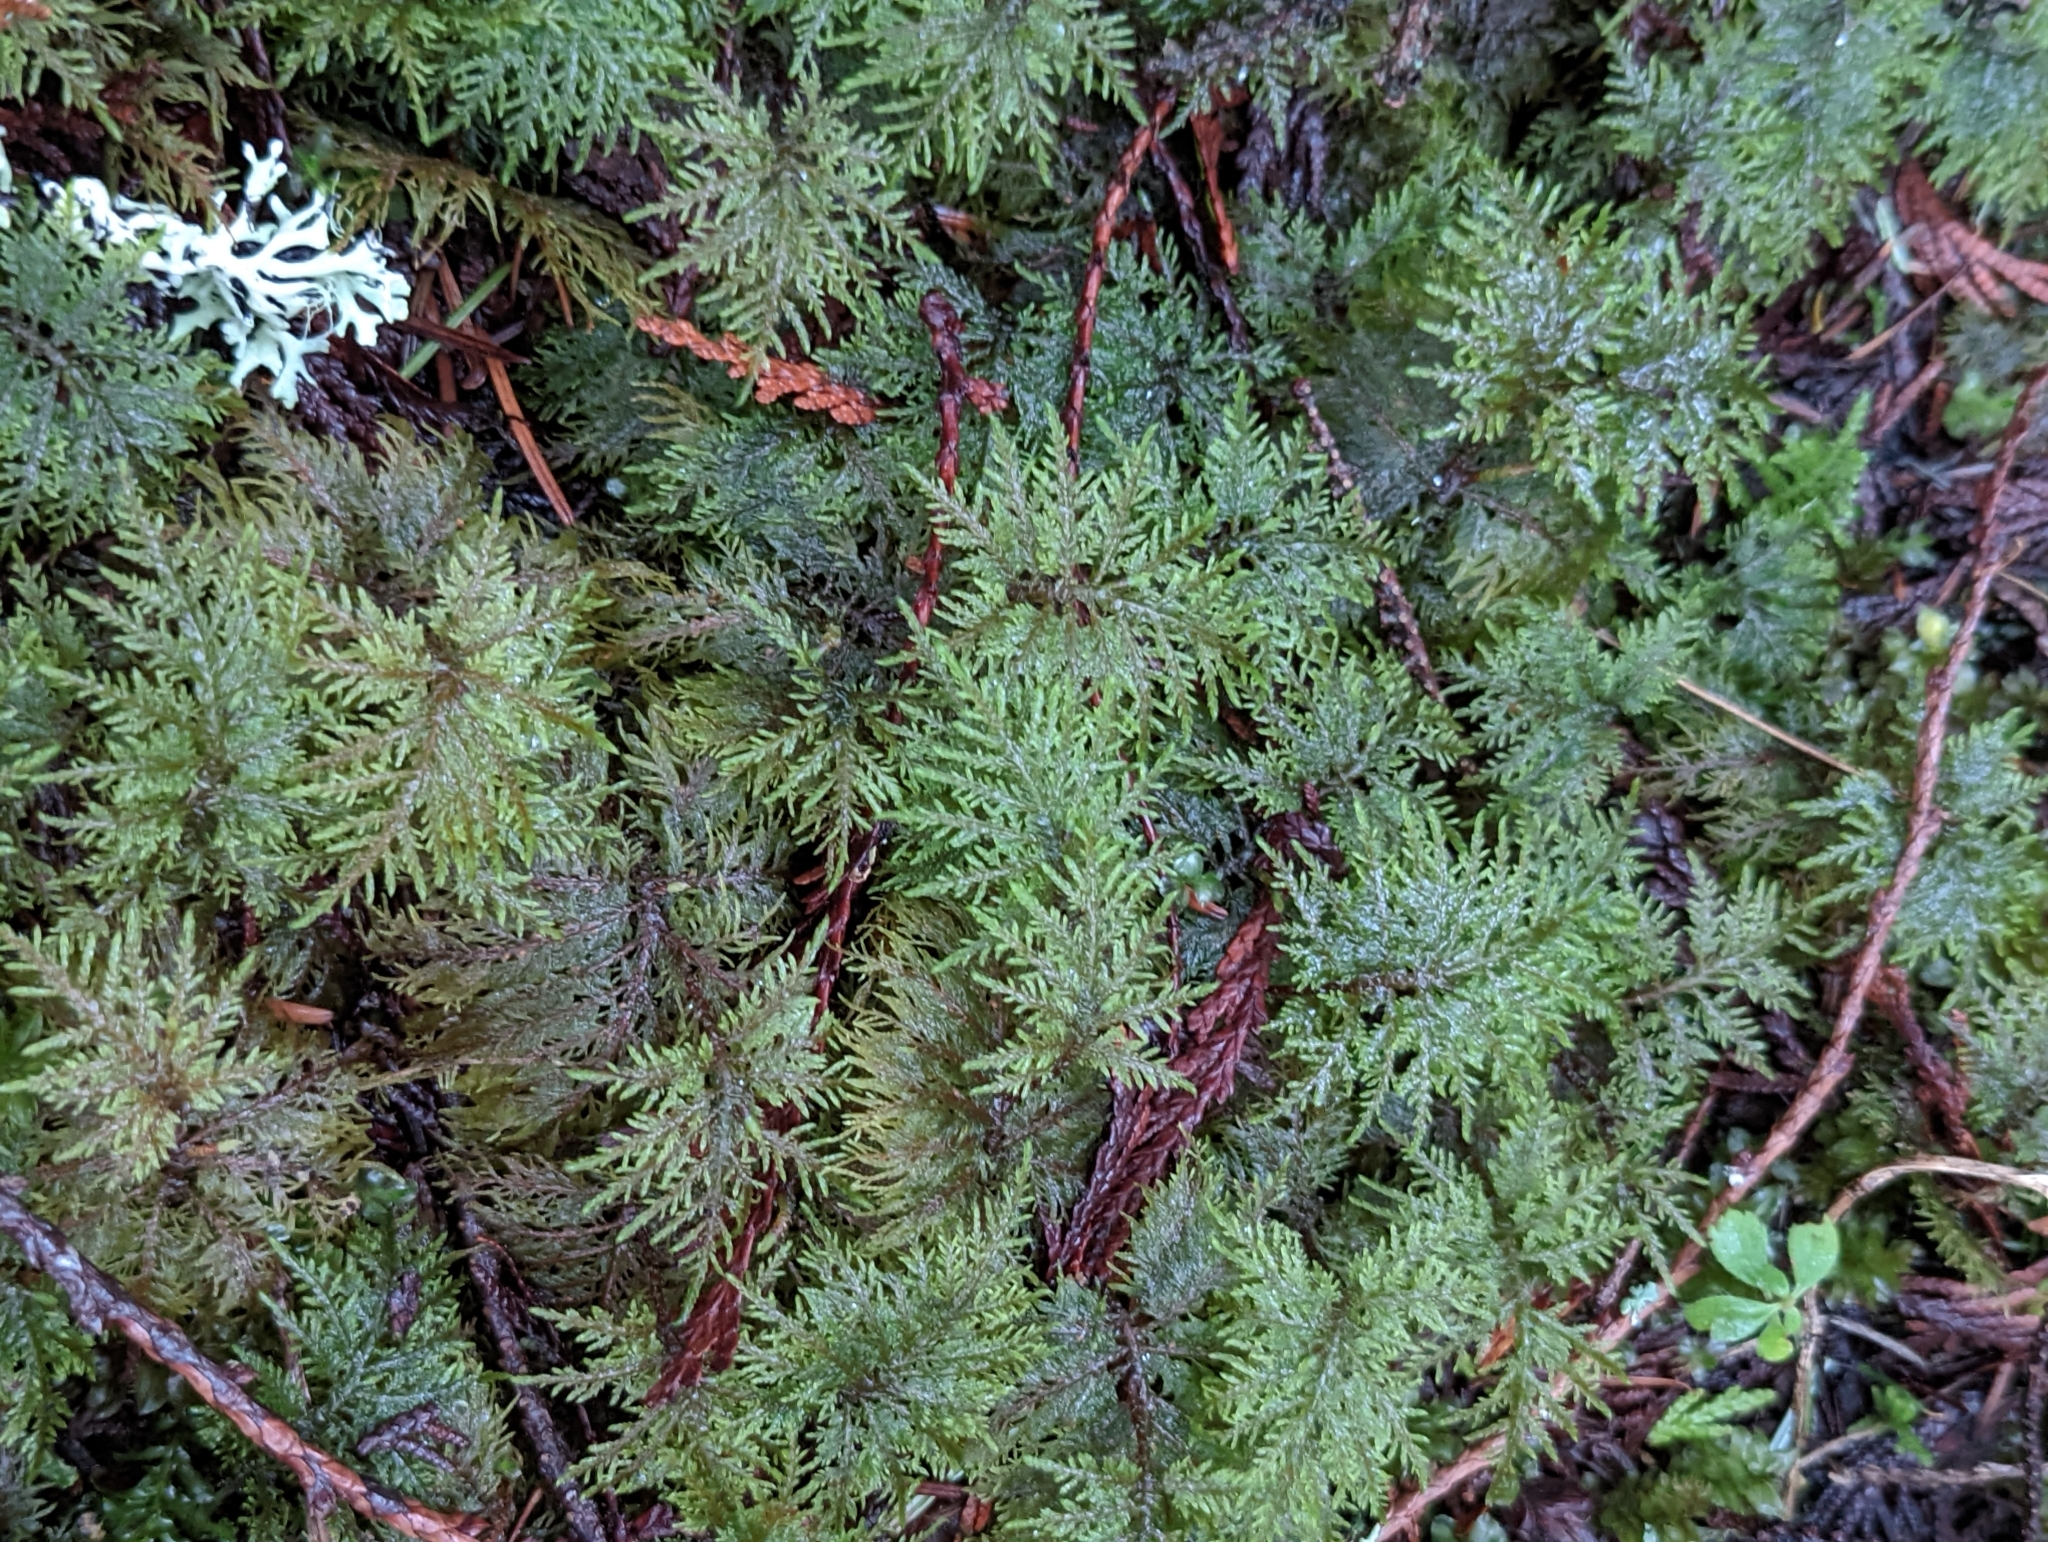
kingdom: Plantae
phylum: Bryophyta
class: Bryopsida
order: Hypnales
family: Hylocomiaceae
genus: Hylocomium
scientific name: Hylocomium splendens
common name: Stairstep moss
